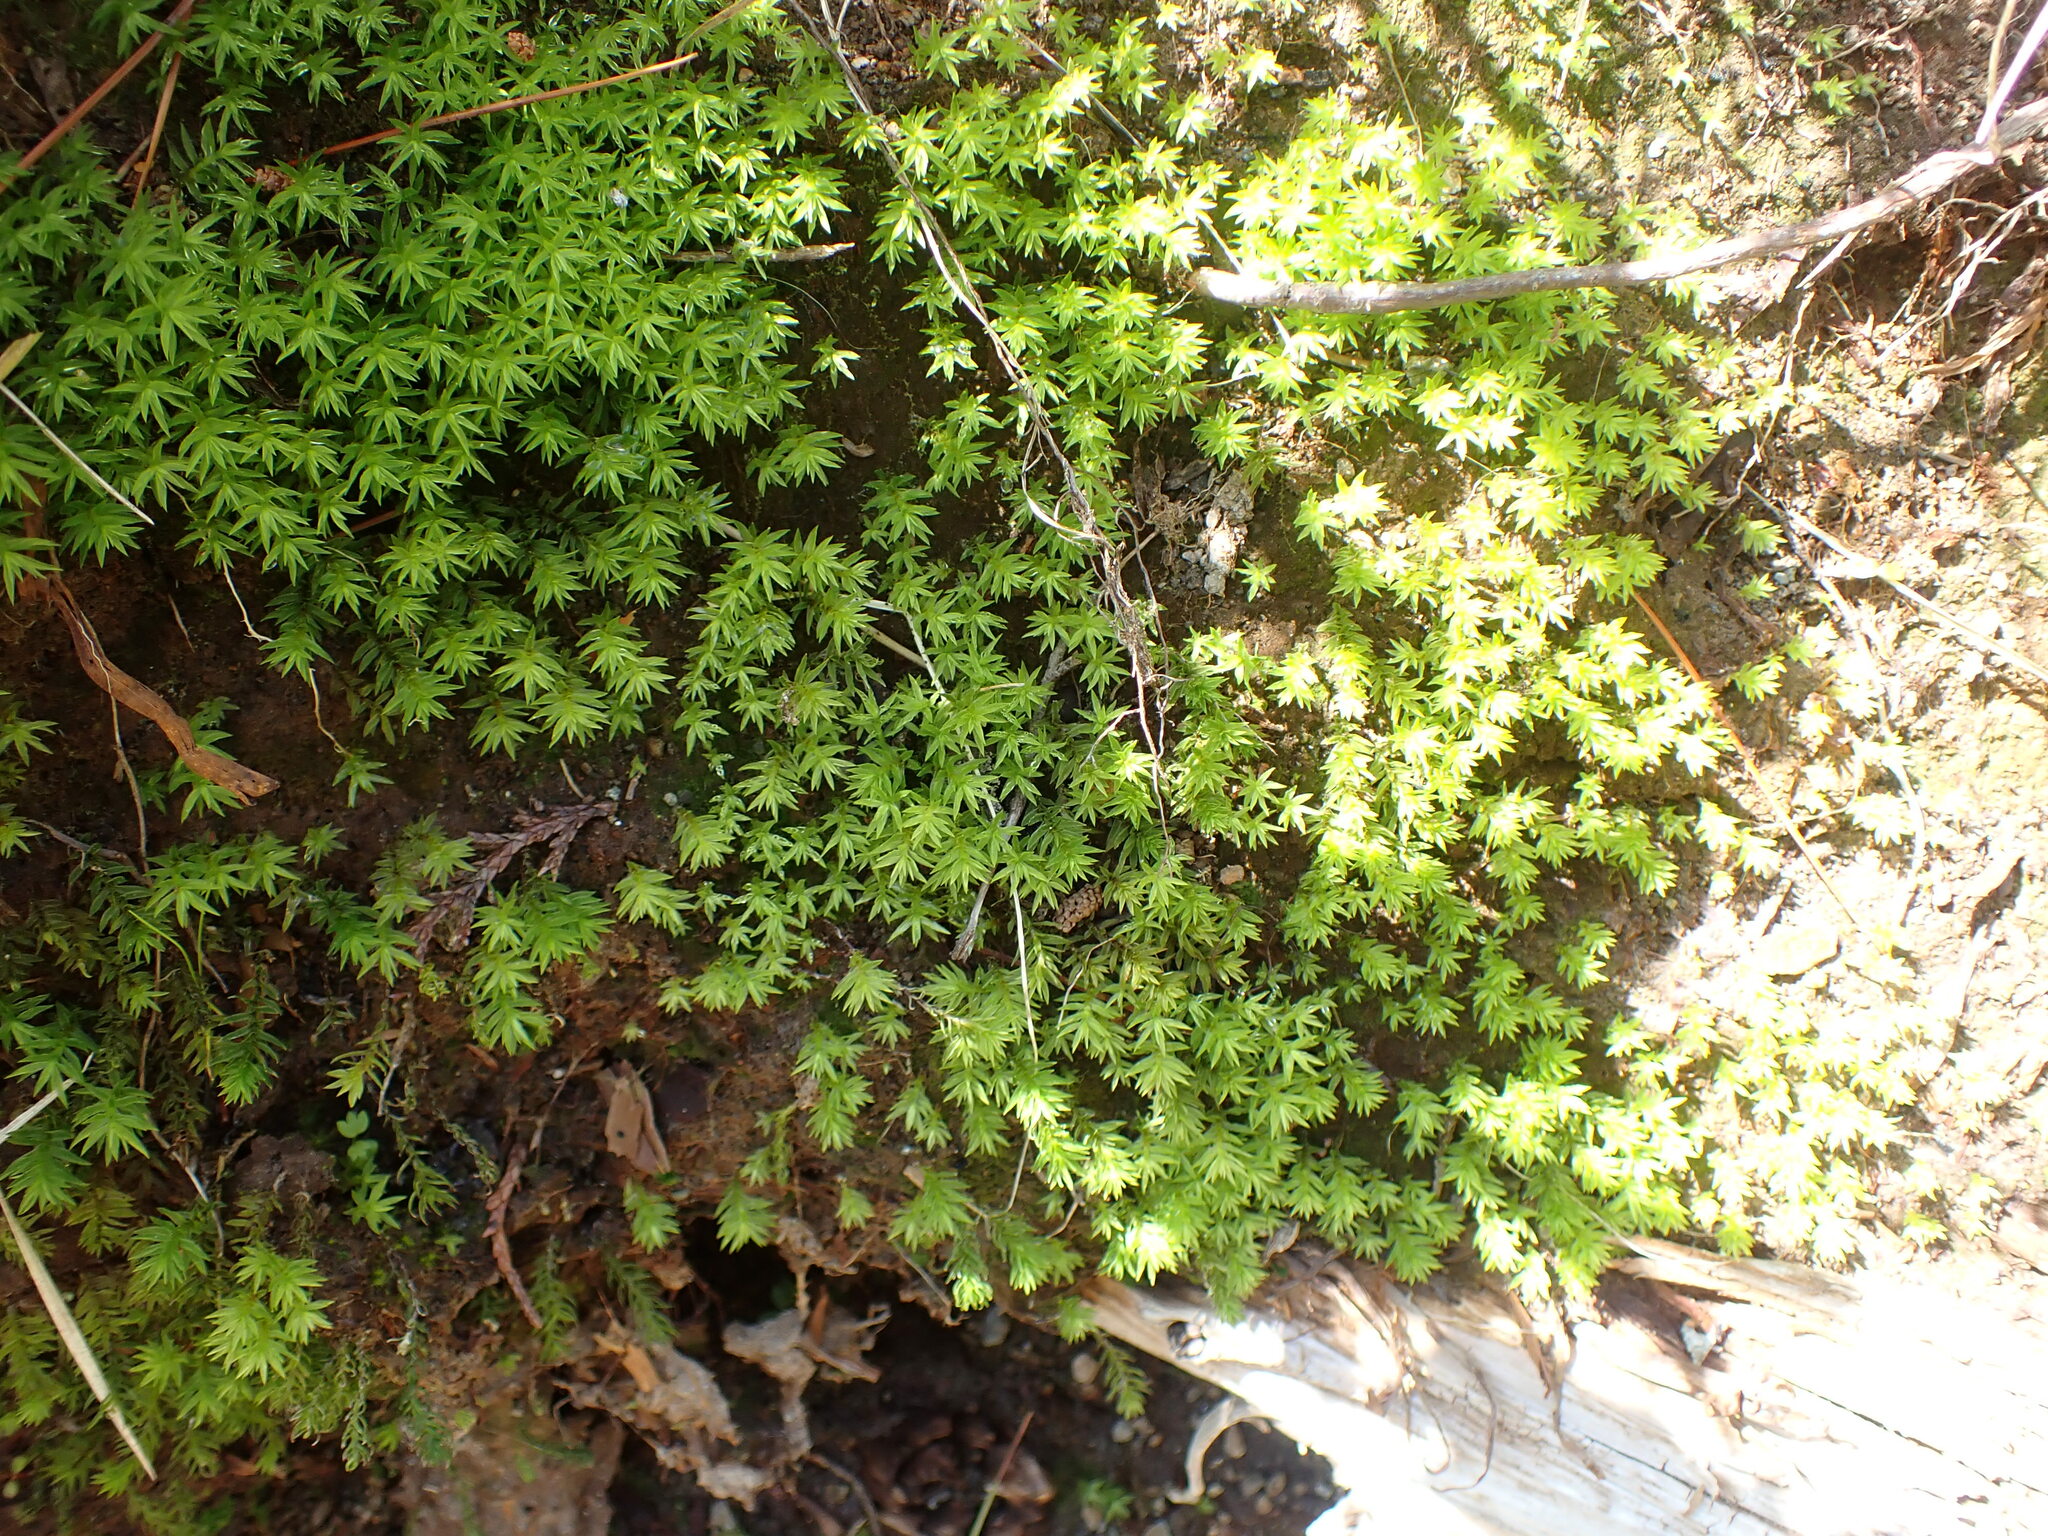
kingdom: Plantae
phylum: Bryophyta
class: Polytrichopsida
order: Polytrichales
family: Polytrichaceae
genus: Pogonatum
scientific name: Pogonatum contortum
